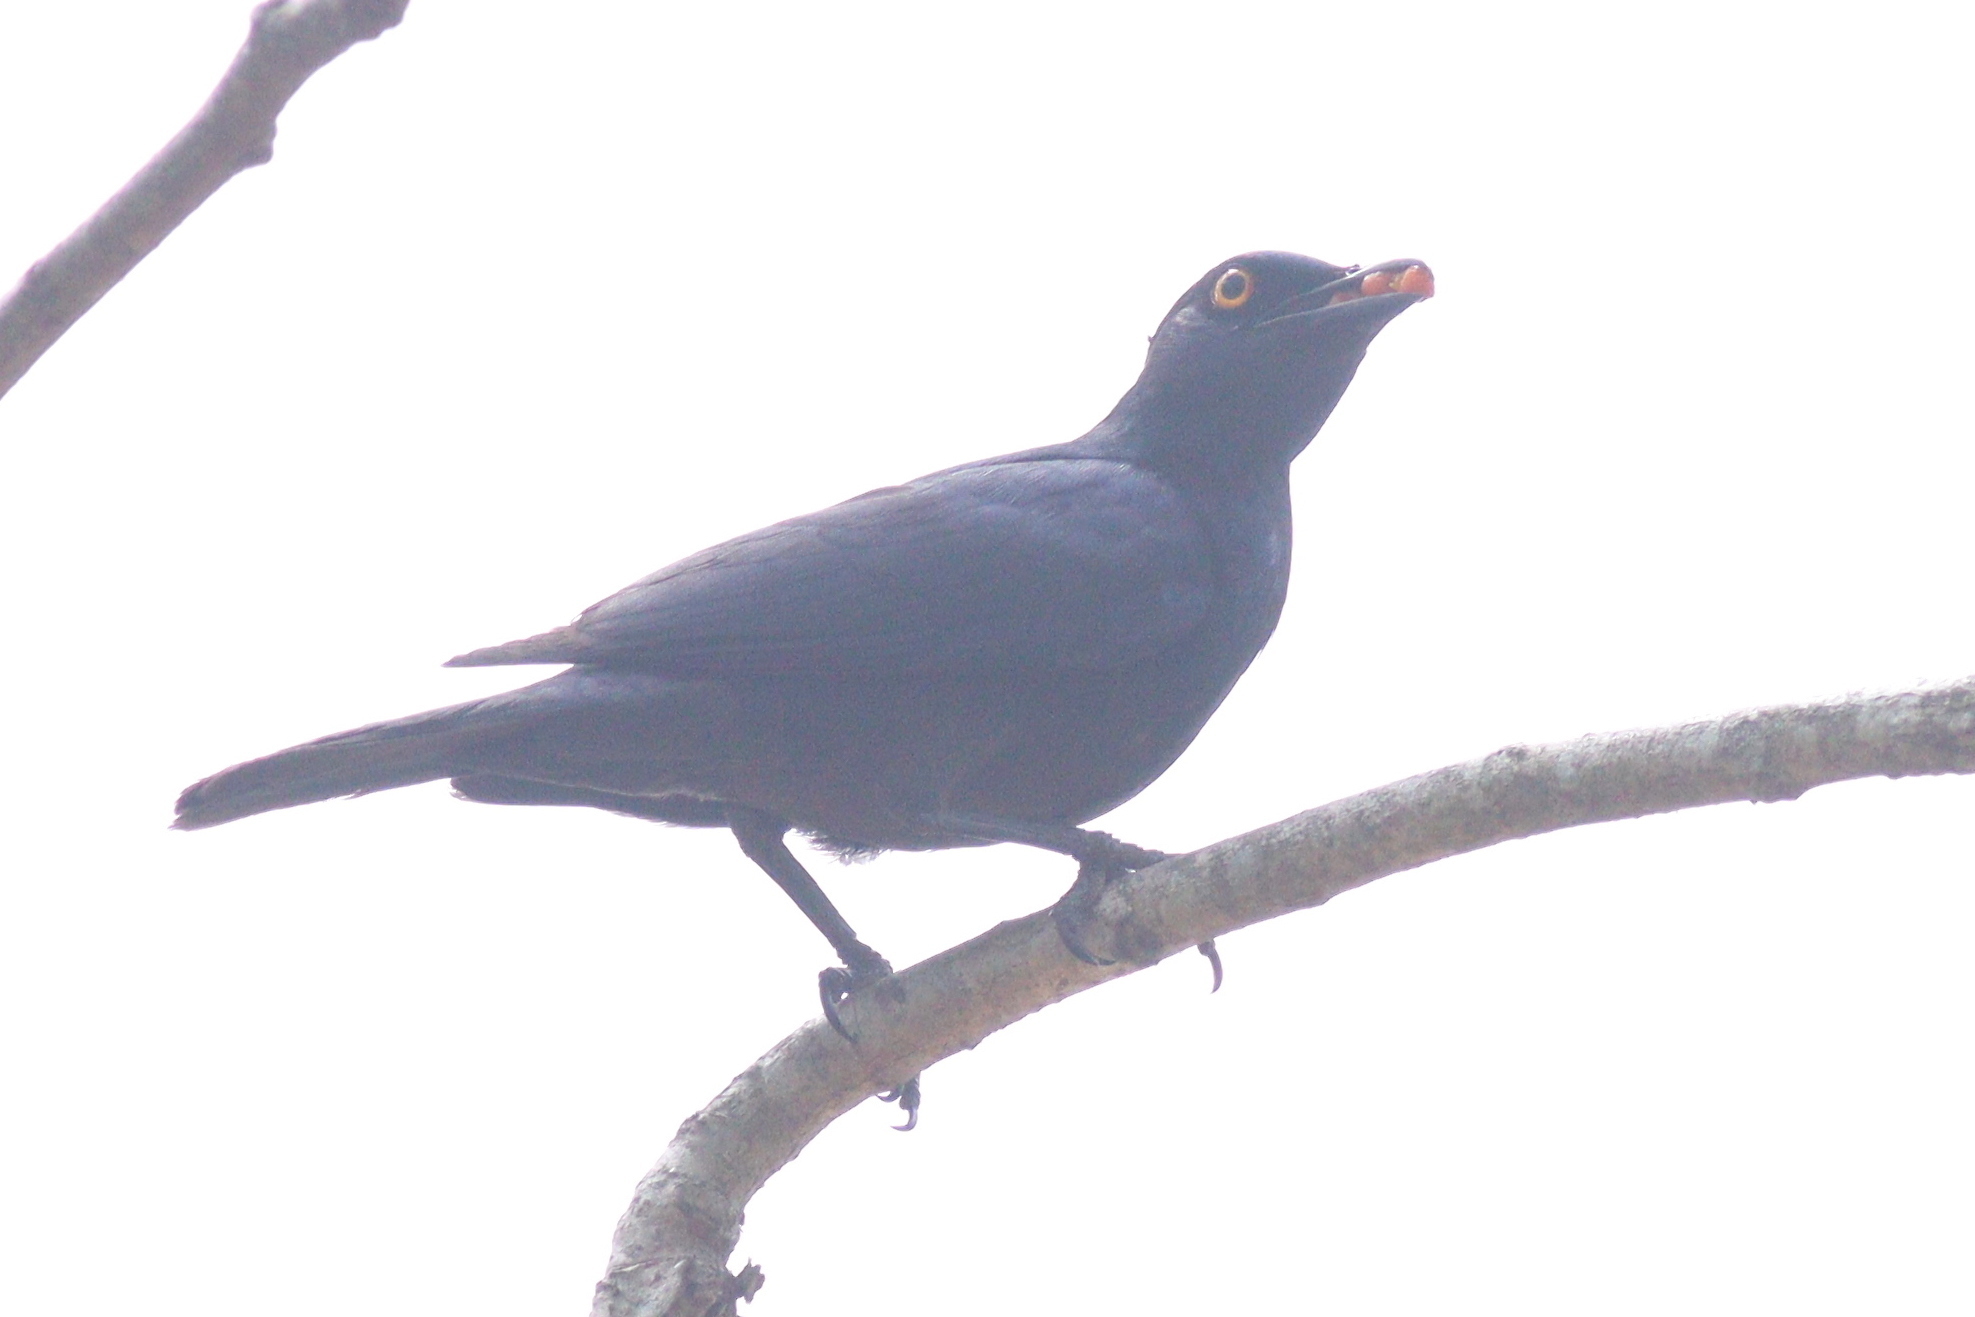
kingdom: Animalia
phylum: Chordata
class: Aves
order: Passeriformes
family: Sturnidae
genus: Notopholia
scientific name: Notopholia corrusca
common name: Black-bellied starling
